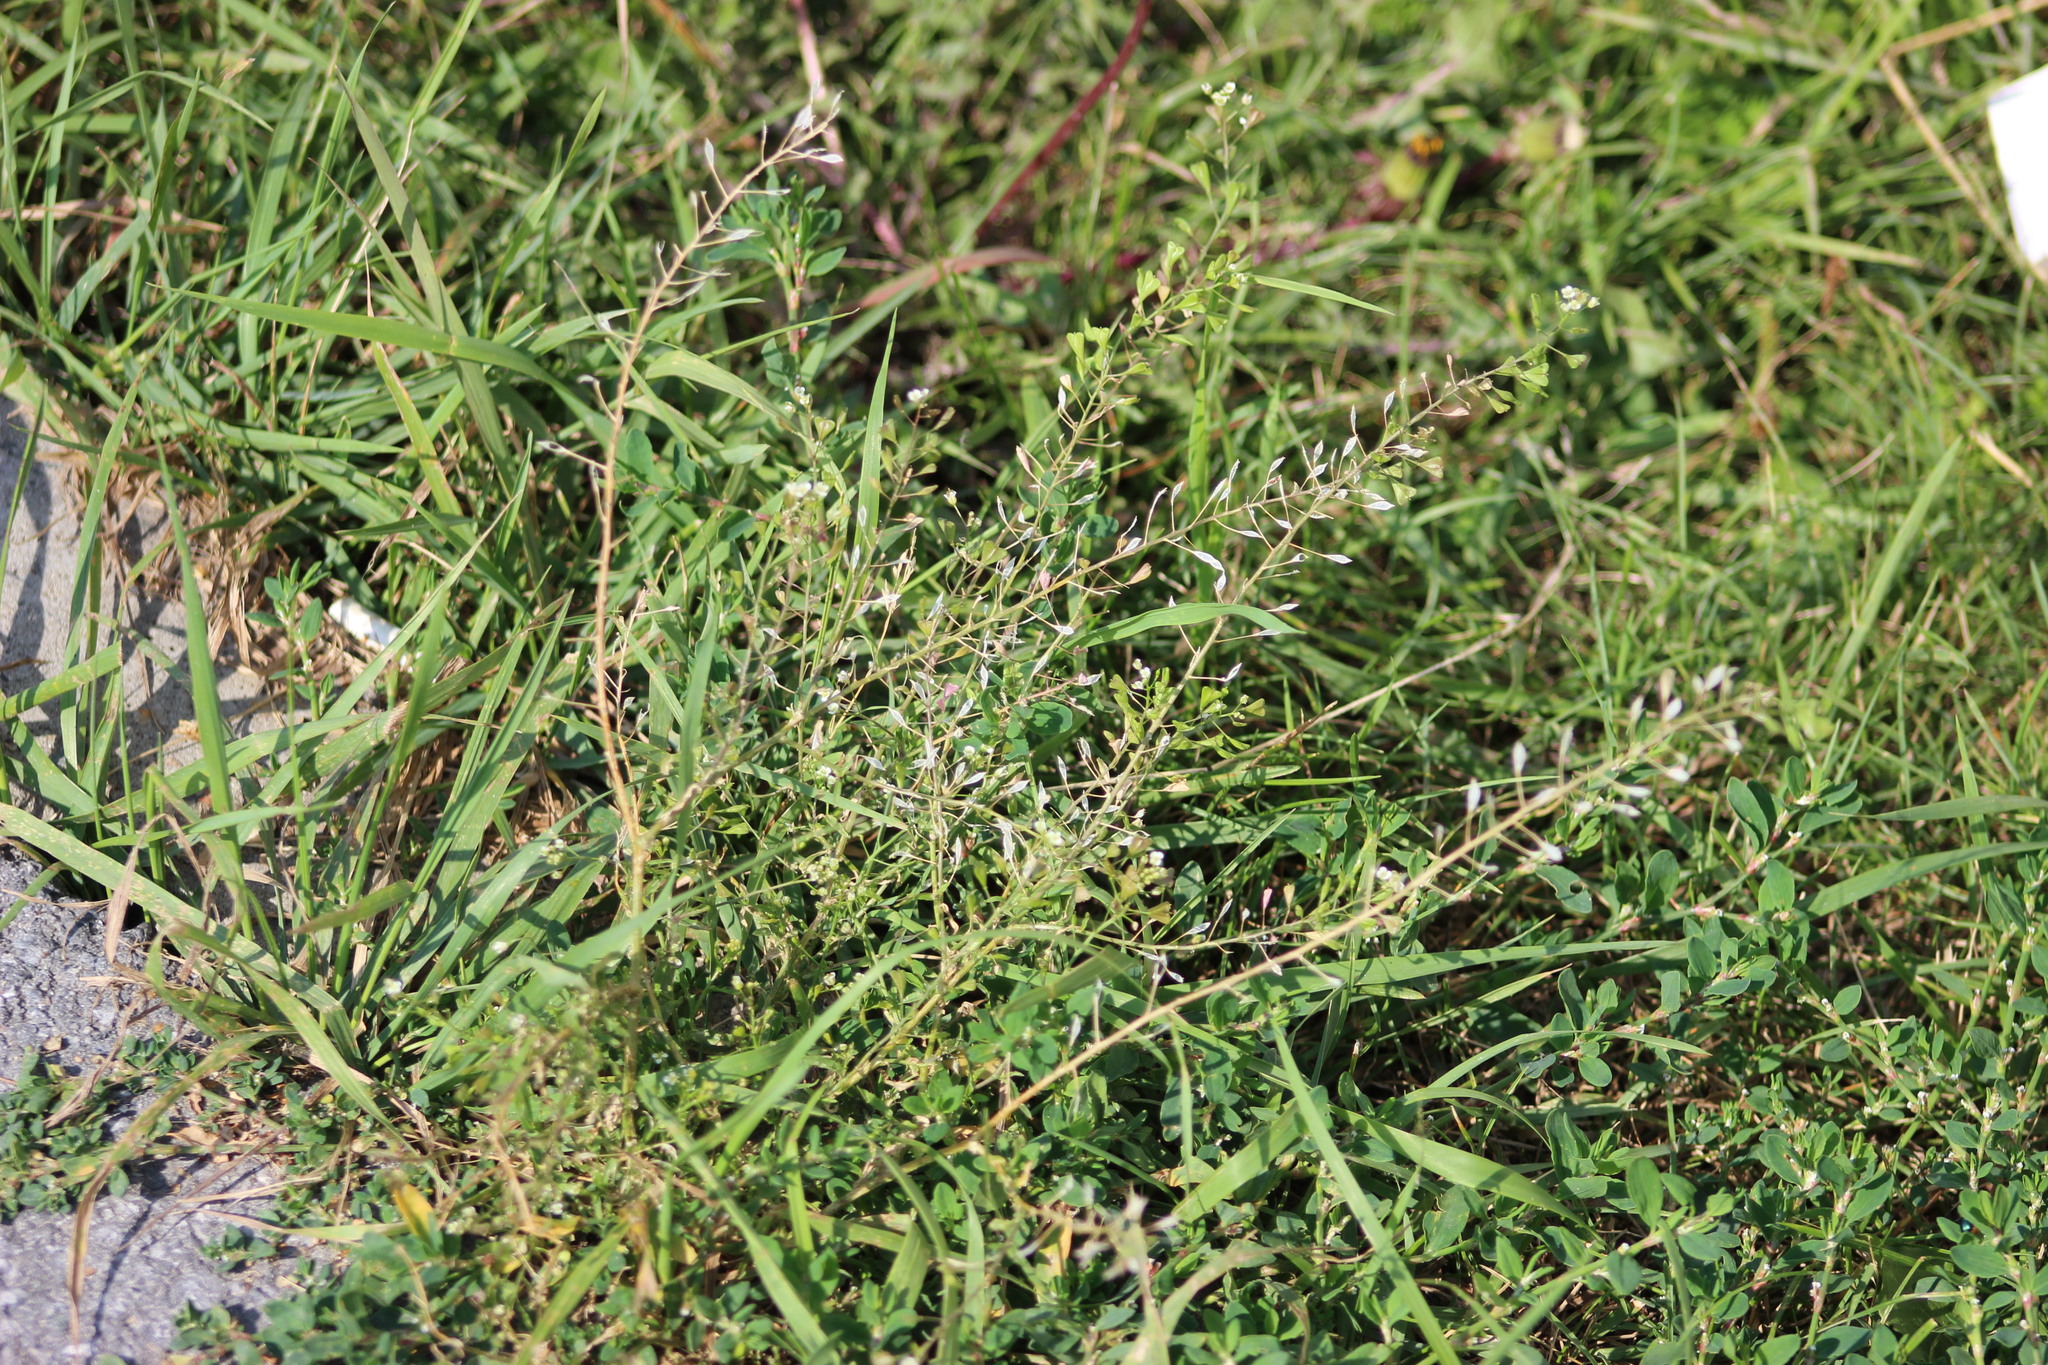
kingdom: Plantae
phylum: Tracheophyta
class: Magnoliopsida
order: Brassicales
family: Brassicaceae
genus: Capsella
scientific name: Capsella bursa-pastoris
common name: Shepherd's purse
